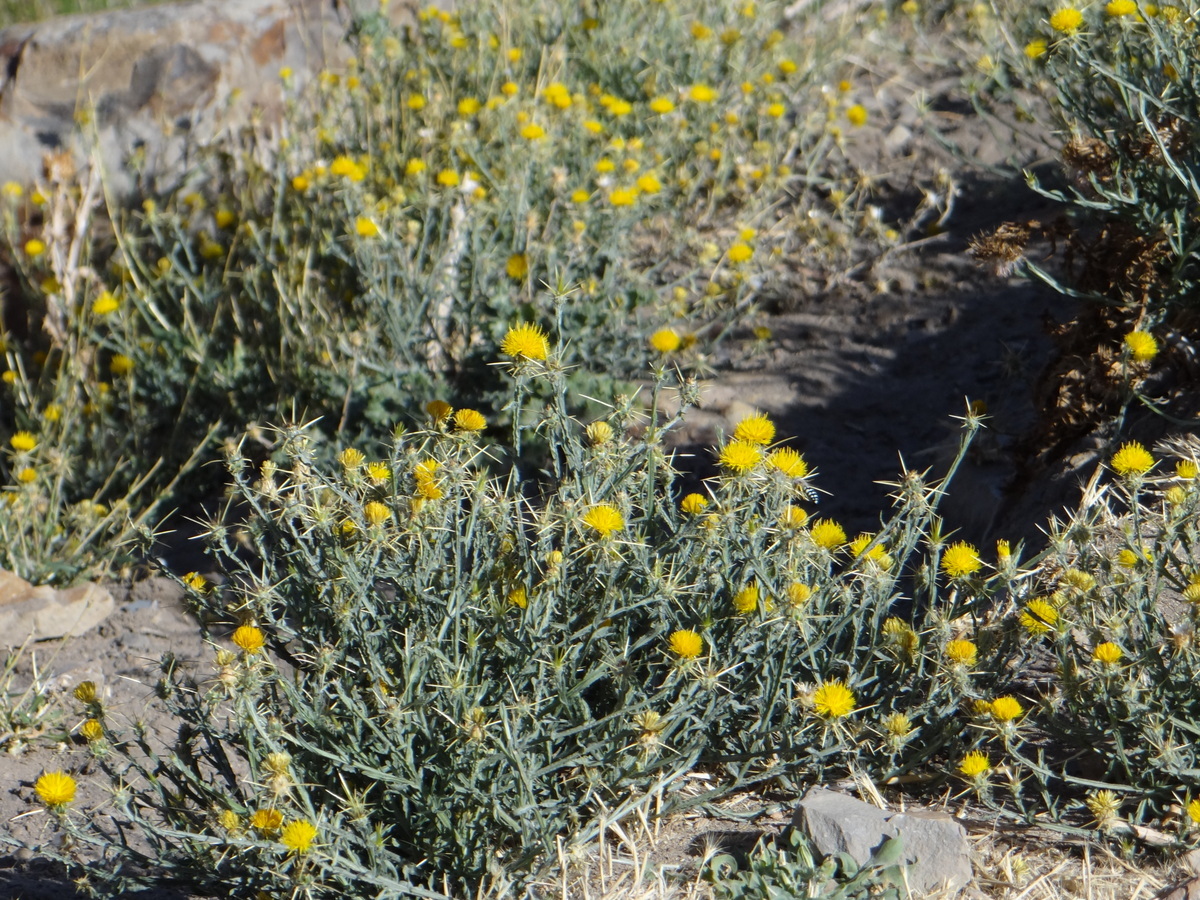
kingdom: Plantae
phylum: Tracheophyta
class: Magnoliopsida
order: Asterales
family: Asteraceae
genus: Centaurea
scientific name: Centaurea solstitialis
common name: Yellow star-thistle
